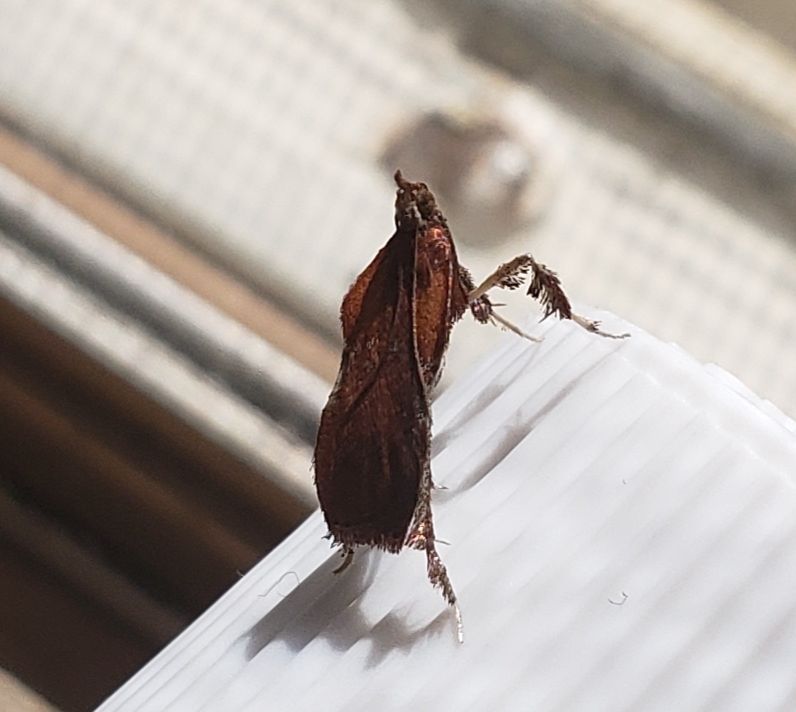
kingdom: Animalia
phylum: Arthropoda
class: Insecta
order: Lepidoptera
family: Pyralidae
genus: Galasa
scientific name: Galasa nigrinodis
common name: Boxwood leaftier moth
